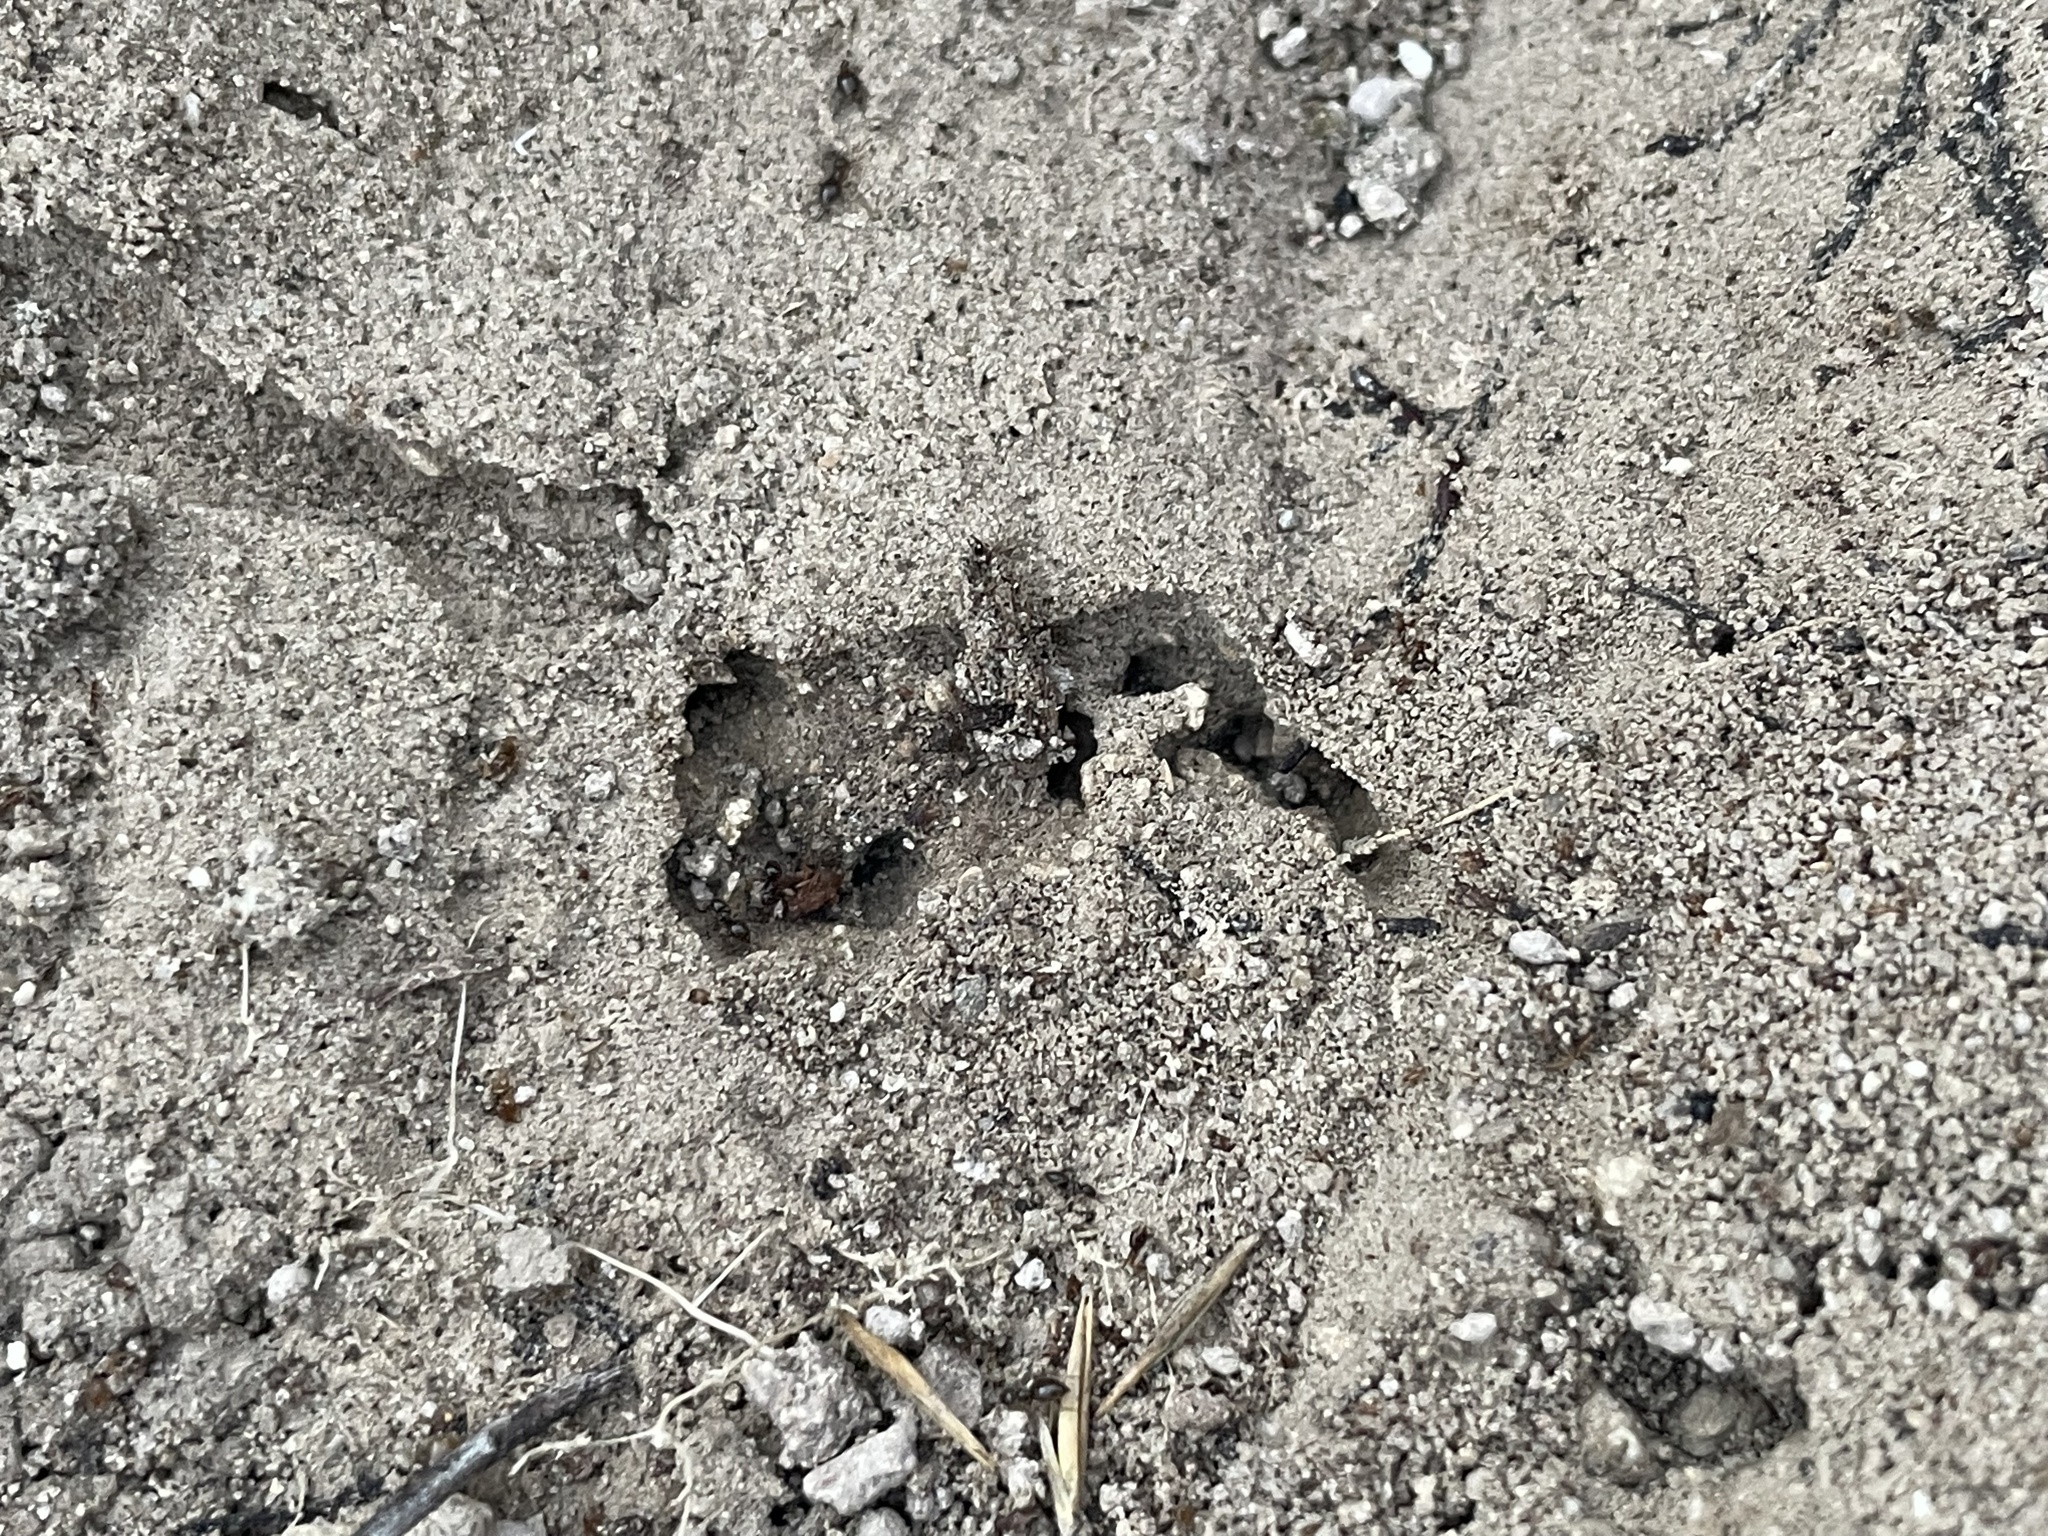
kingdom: Animalia
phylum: Arthropoda
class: Insecta
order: Hymenoptera
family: Formicidae
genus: Brachymyrmex
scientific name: Brachymyrmex patagonicus
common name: Dark rover ant
